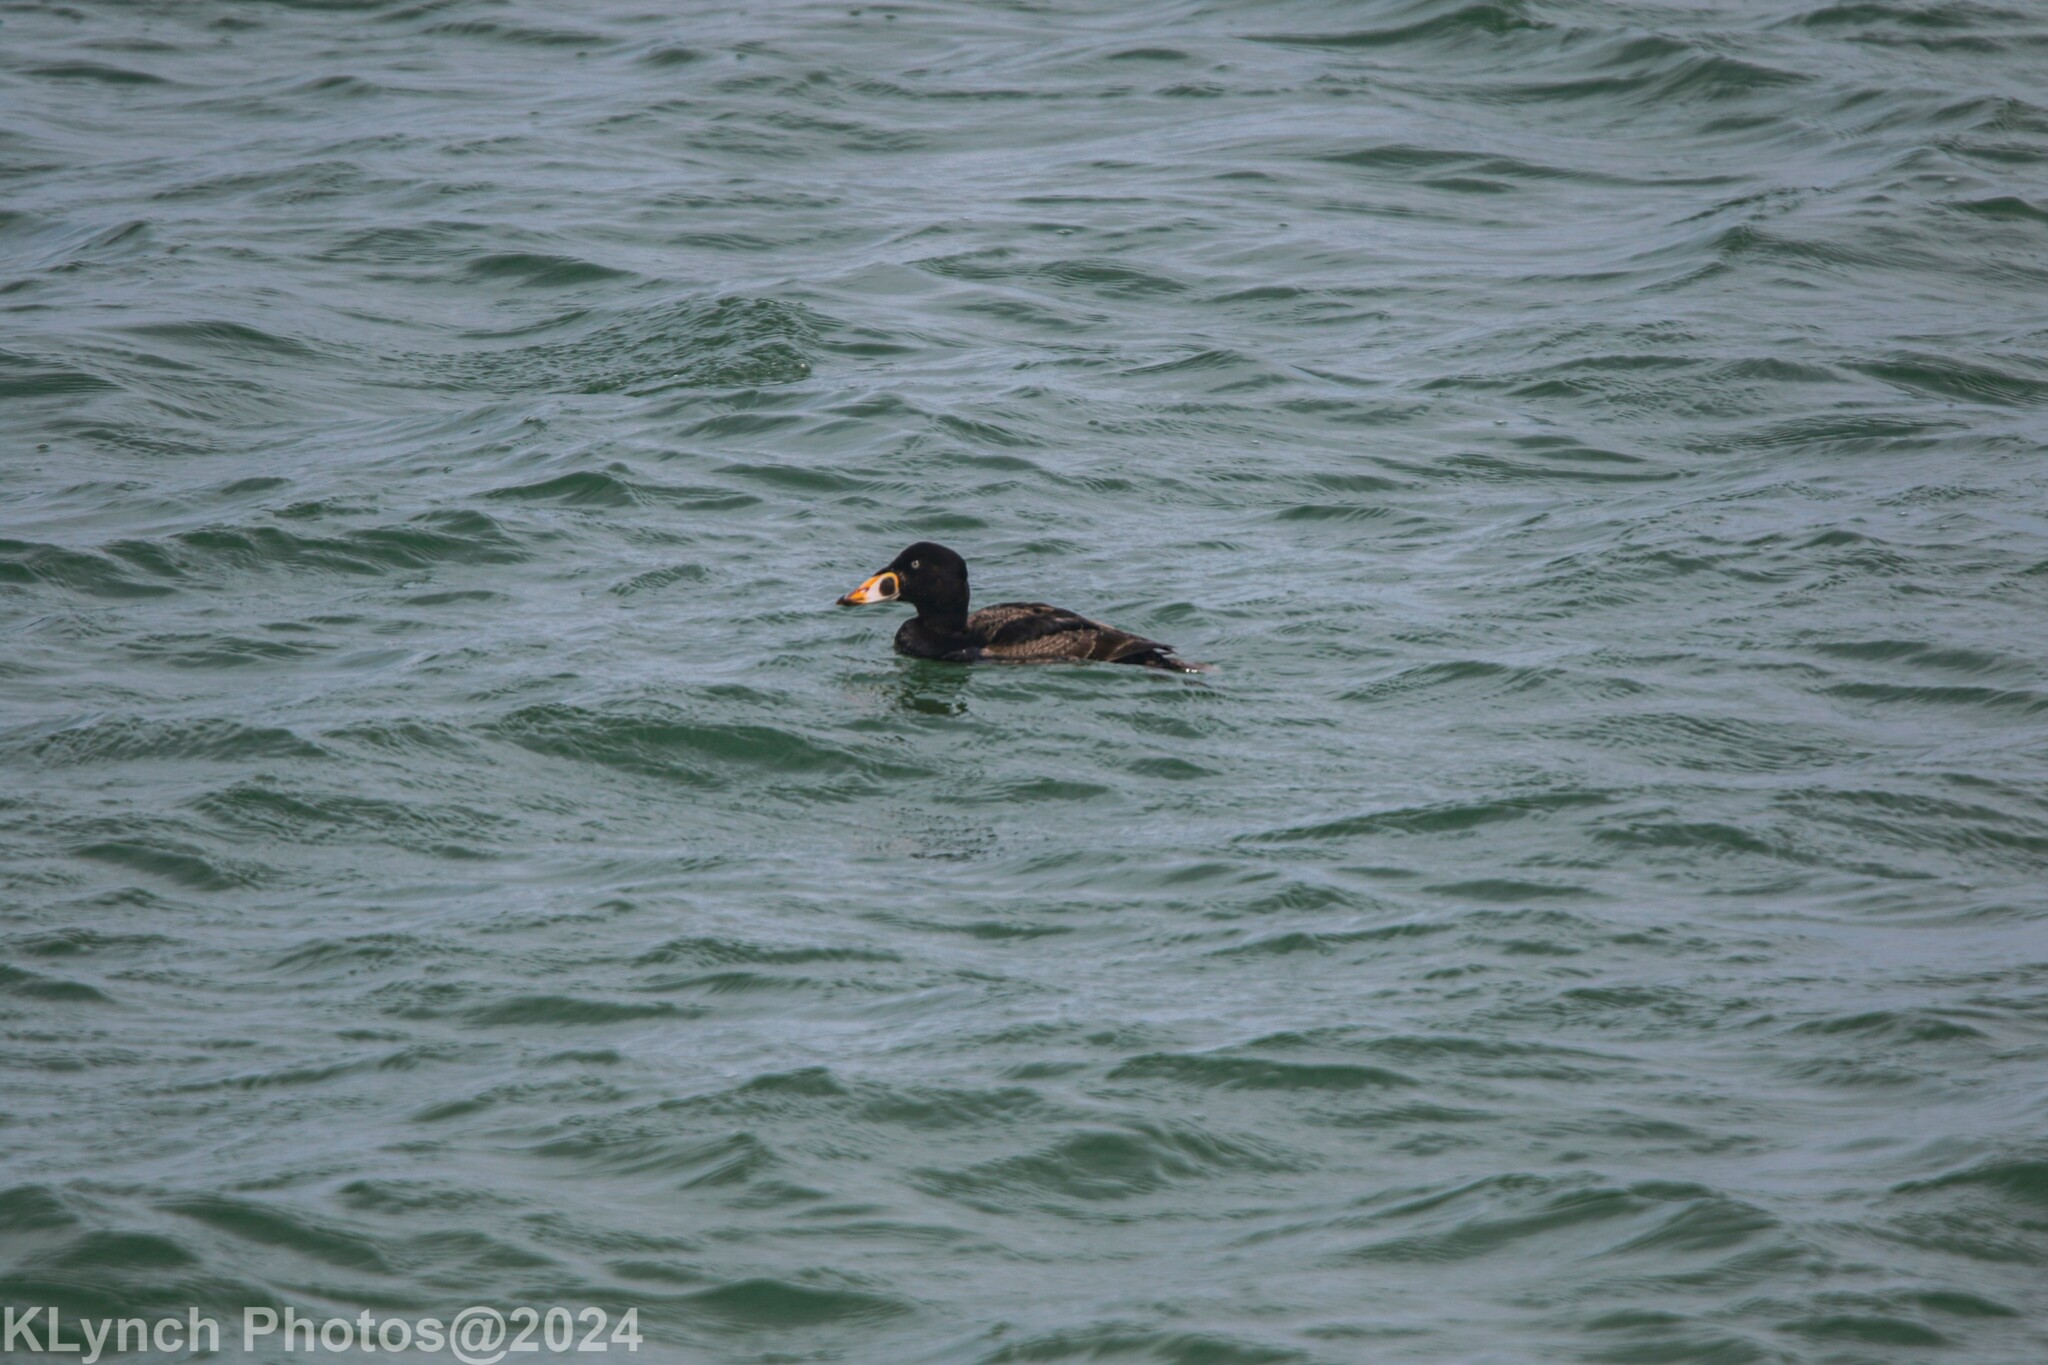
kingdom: Animalia
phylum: Chordata
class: Aves
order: Anseriformes
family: Anatidae
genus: Melanitta
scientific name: Melanitta perspicillata
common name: Surf scoter
